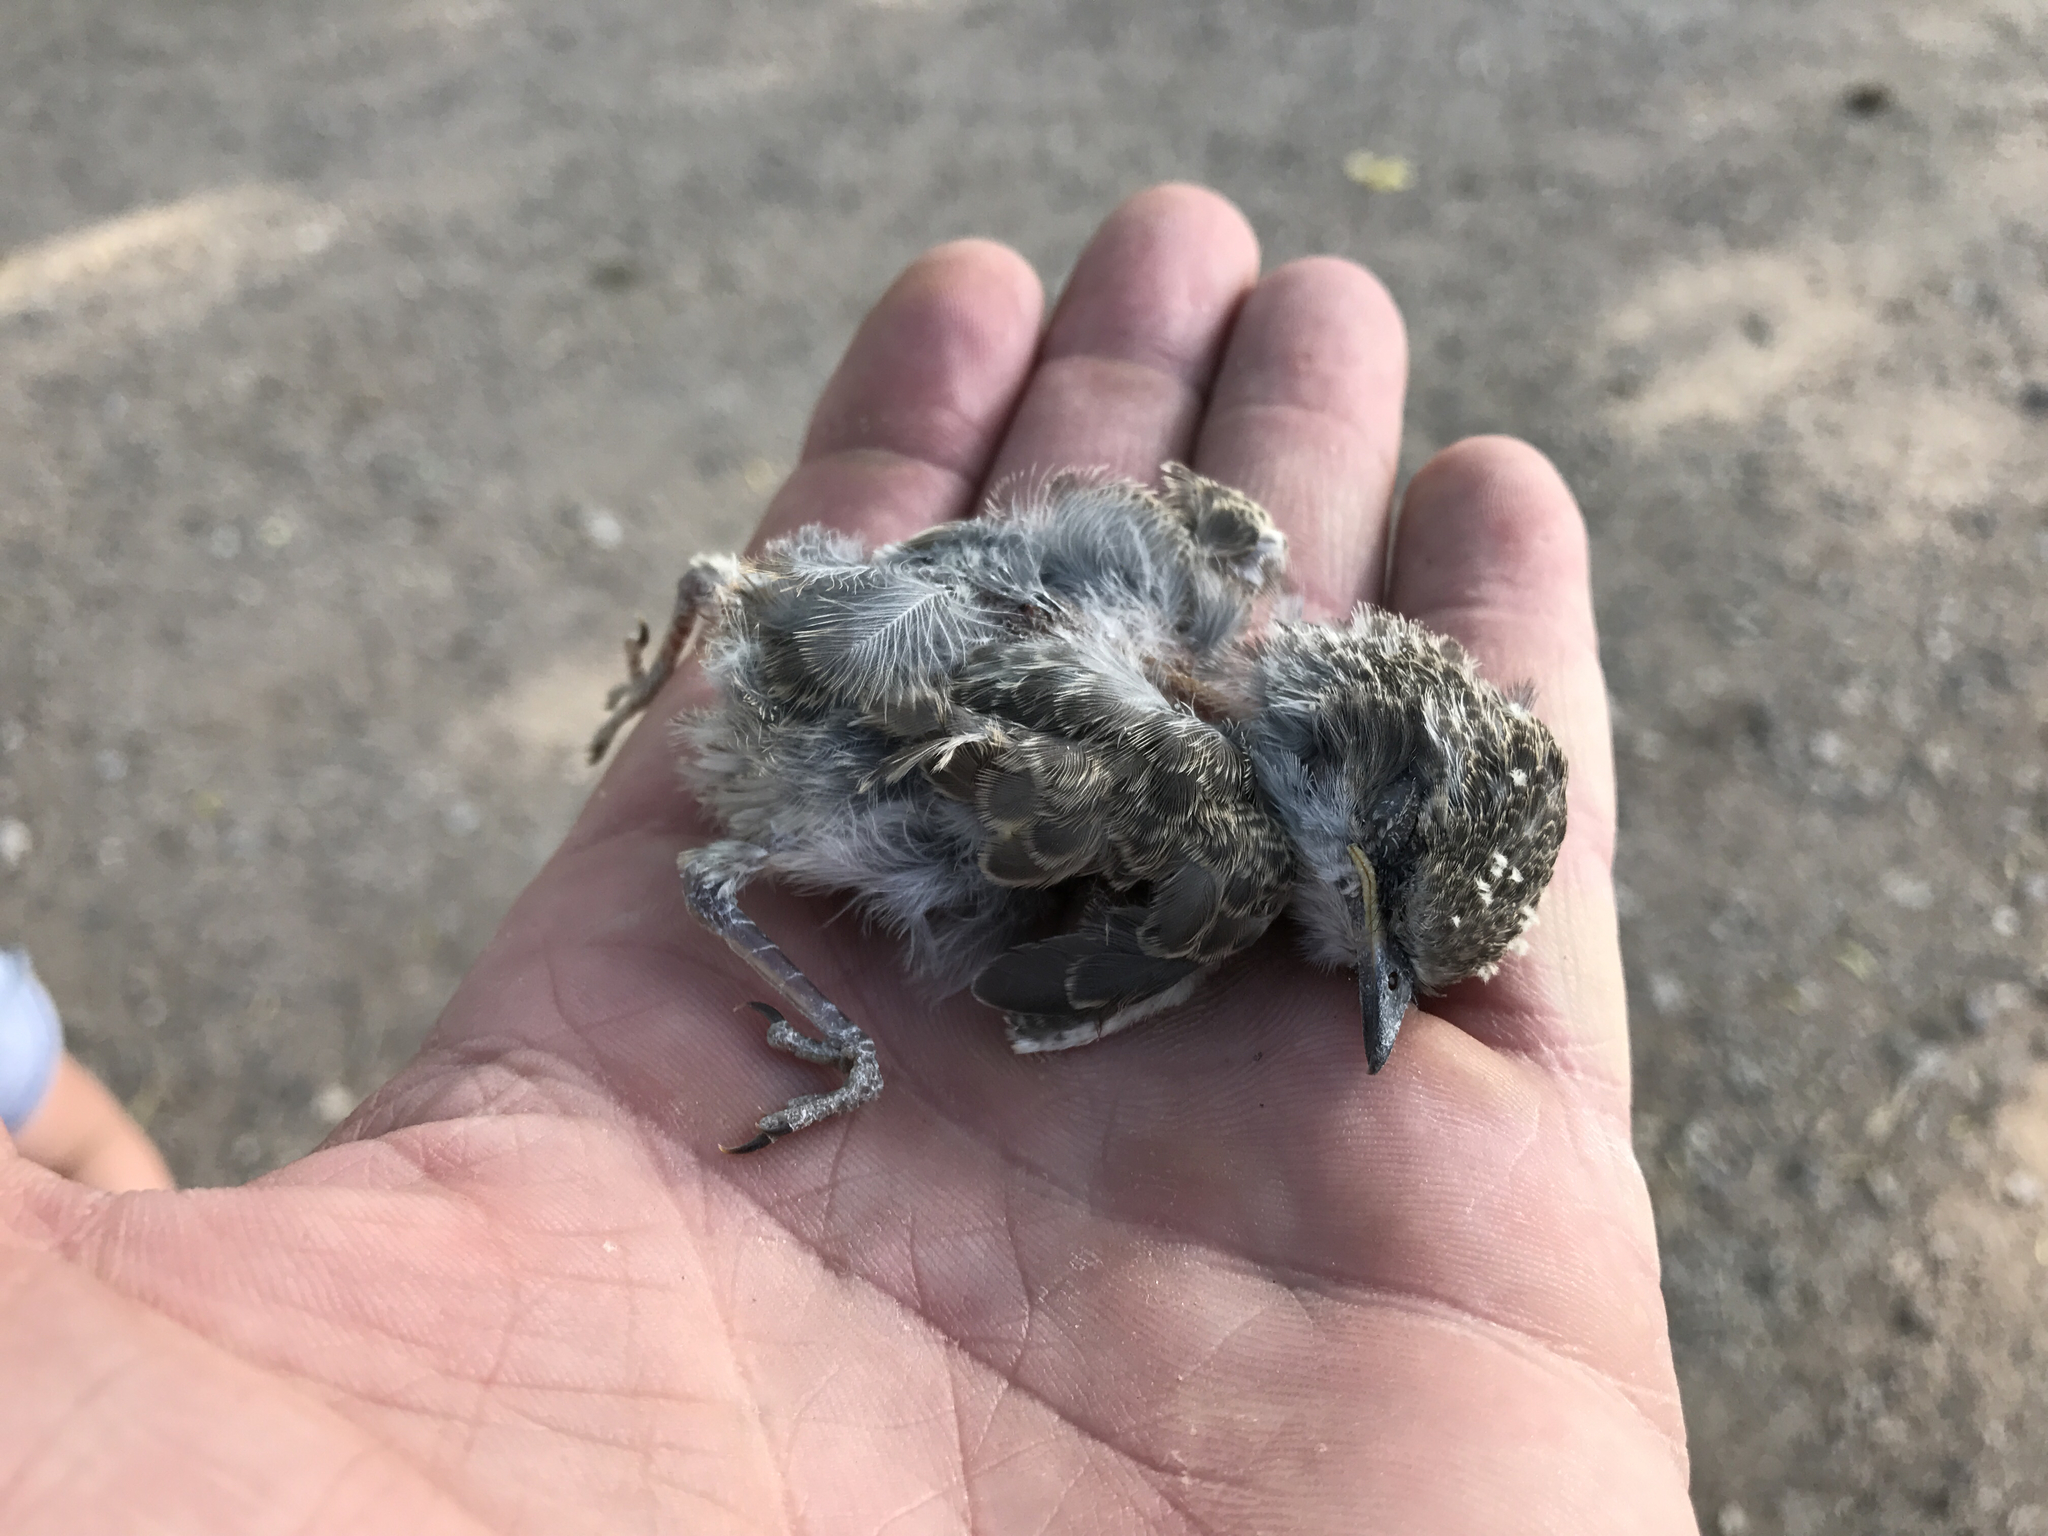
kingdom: Animalia
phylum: Chordata
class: Aves
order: Passeriformes
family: Tyrannidae
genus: Pyrocephalus
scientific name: Pyrocephalus rubinus
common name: Vermilion flycatcher
